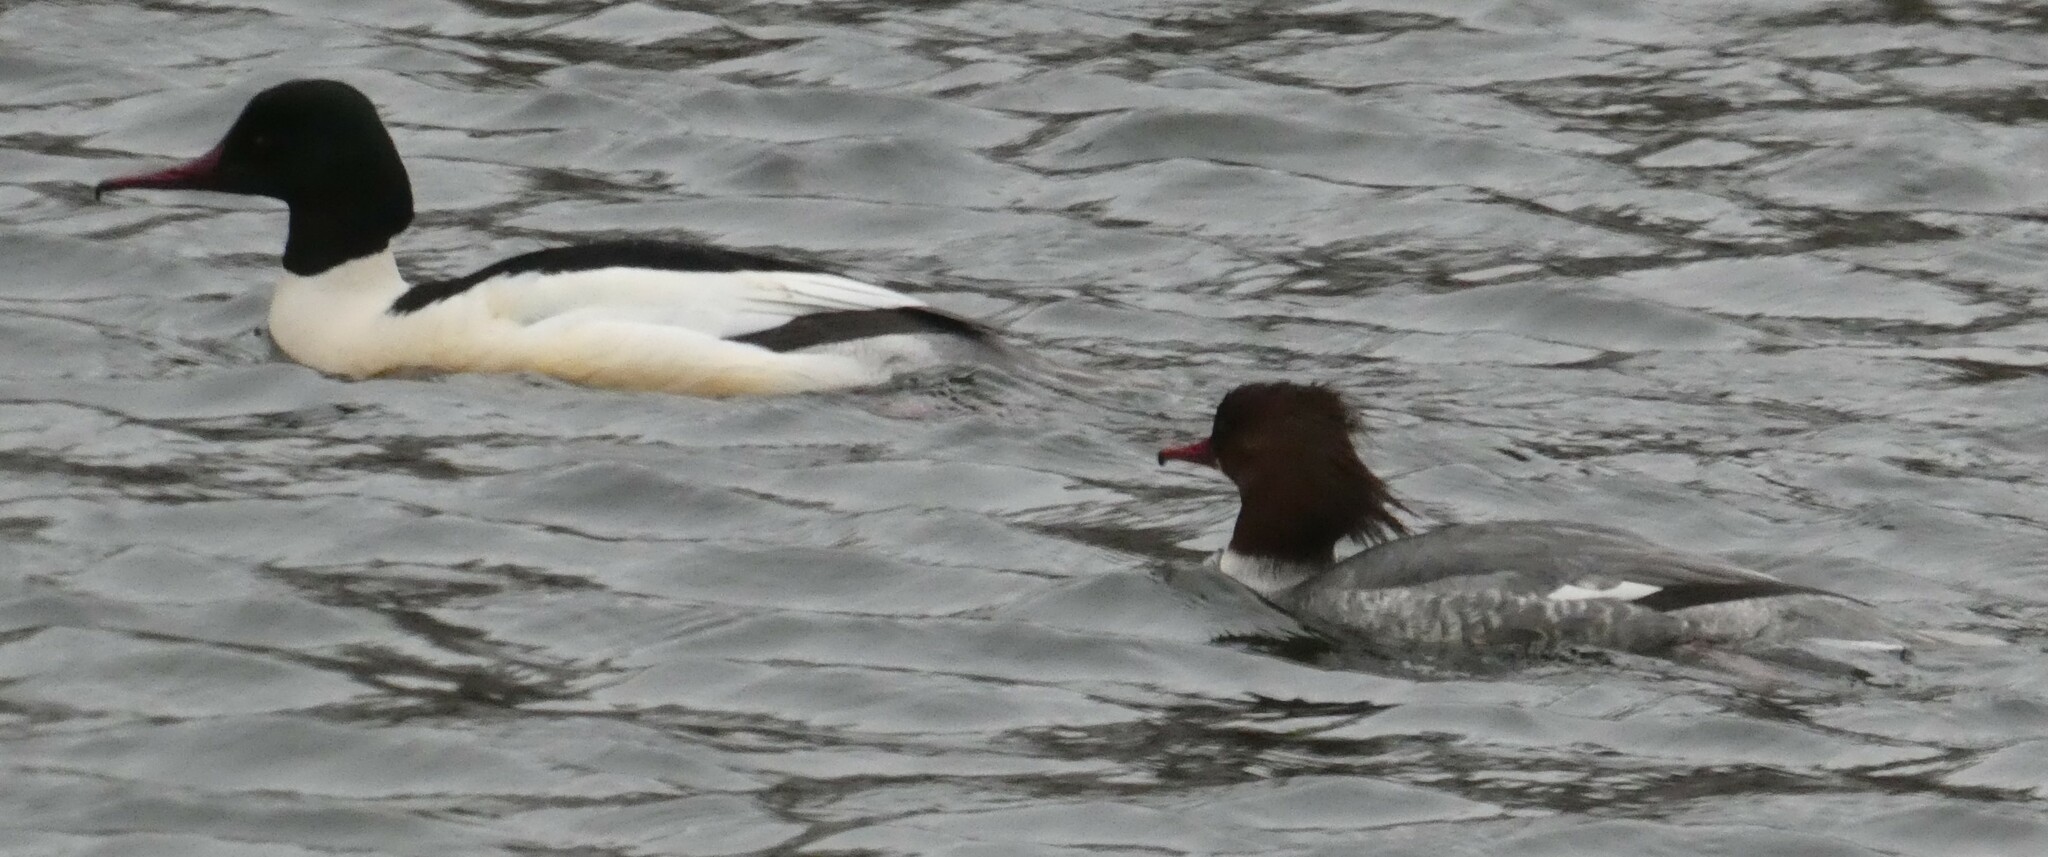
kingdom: Animalia
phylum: Chordata
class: Aves
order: Anseriformes
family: Anatidae
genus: Mergus
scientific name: Mergus merganser
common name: Common merganser
